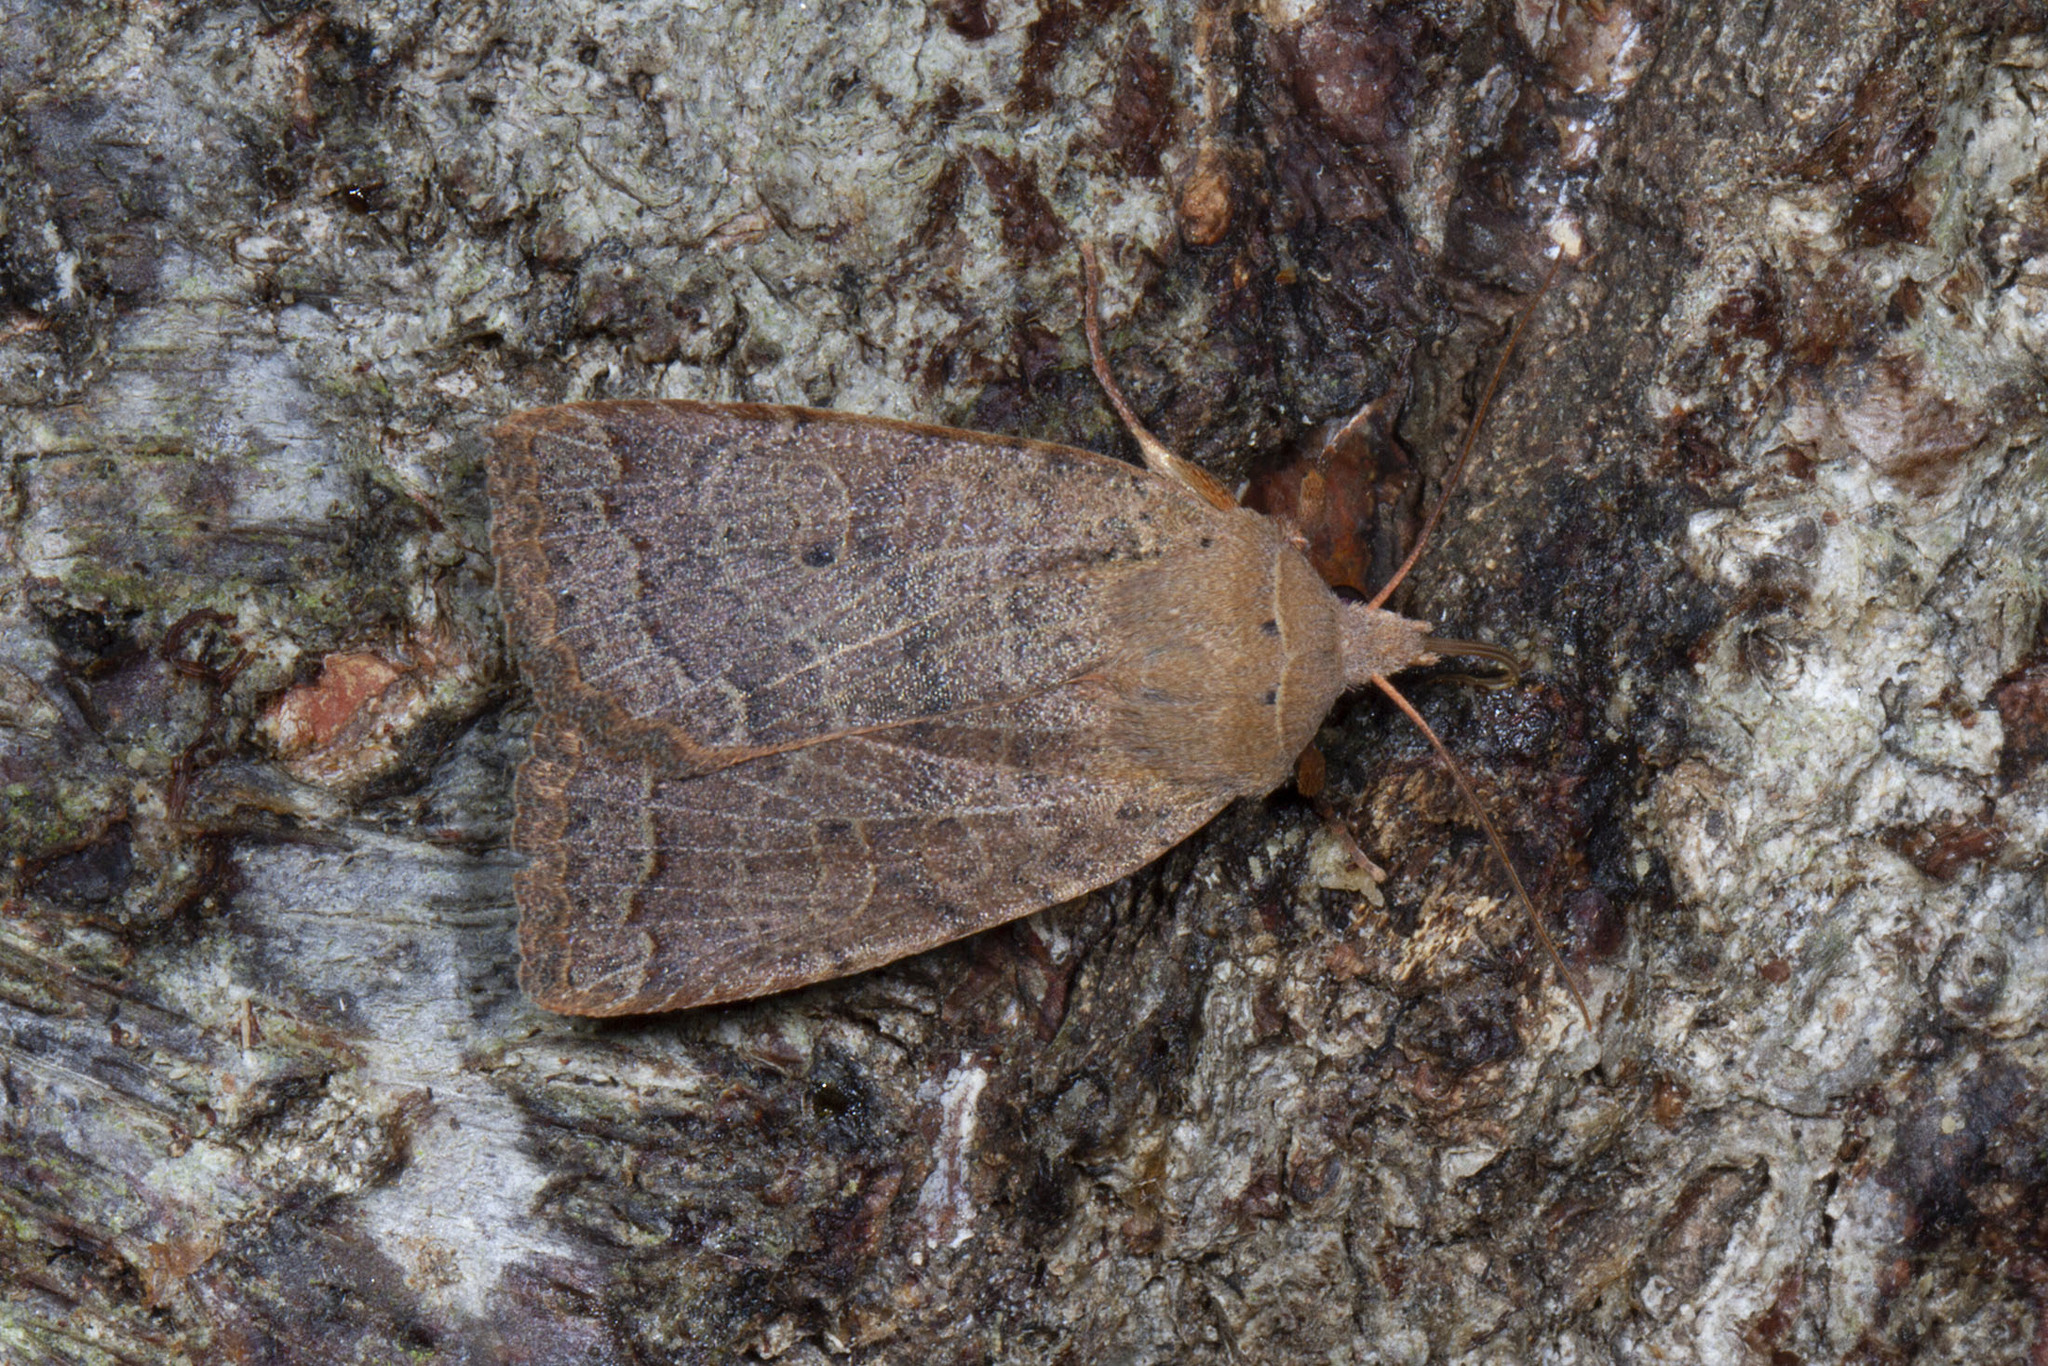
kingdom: Animalia
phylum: Arthropoda
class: Insecta
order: Lepidoptera
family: Noctuidae
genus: Sericaglaea
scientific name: Sericaglaea signata
